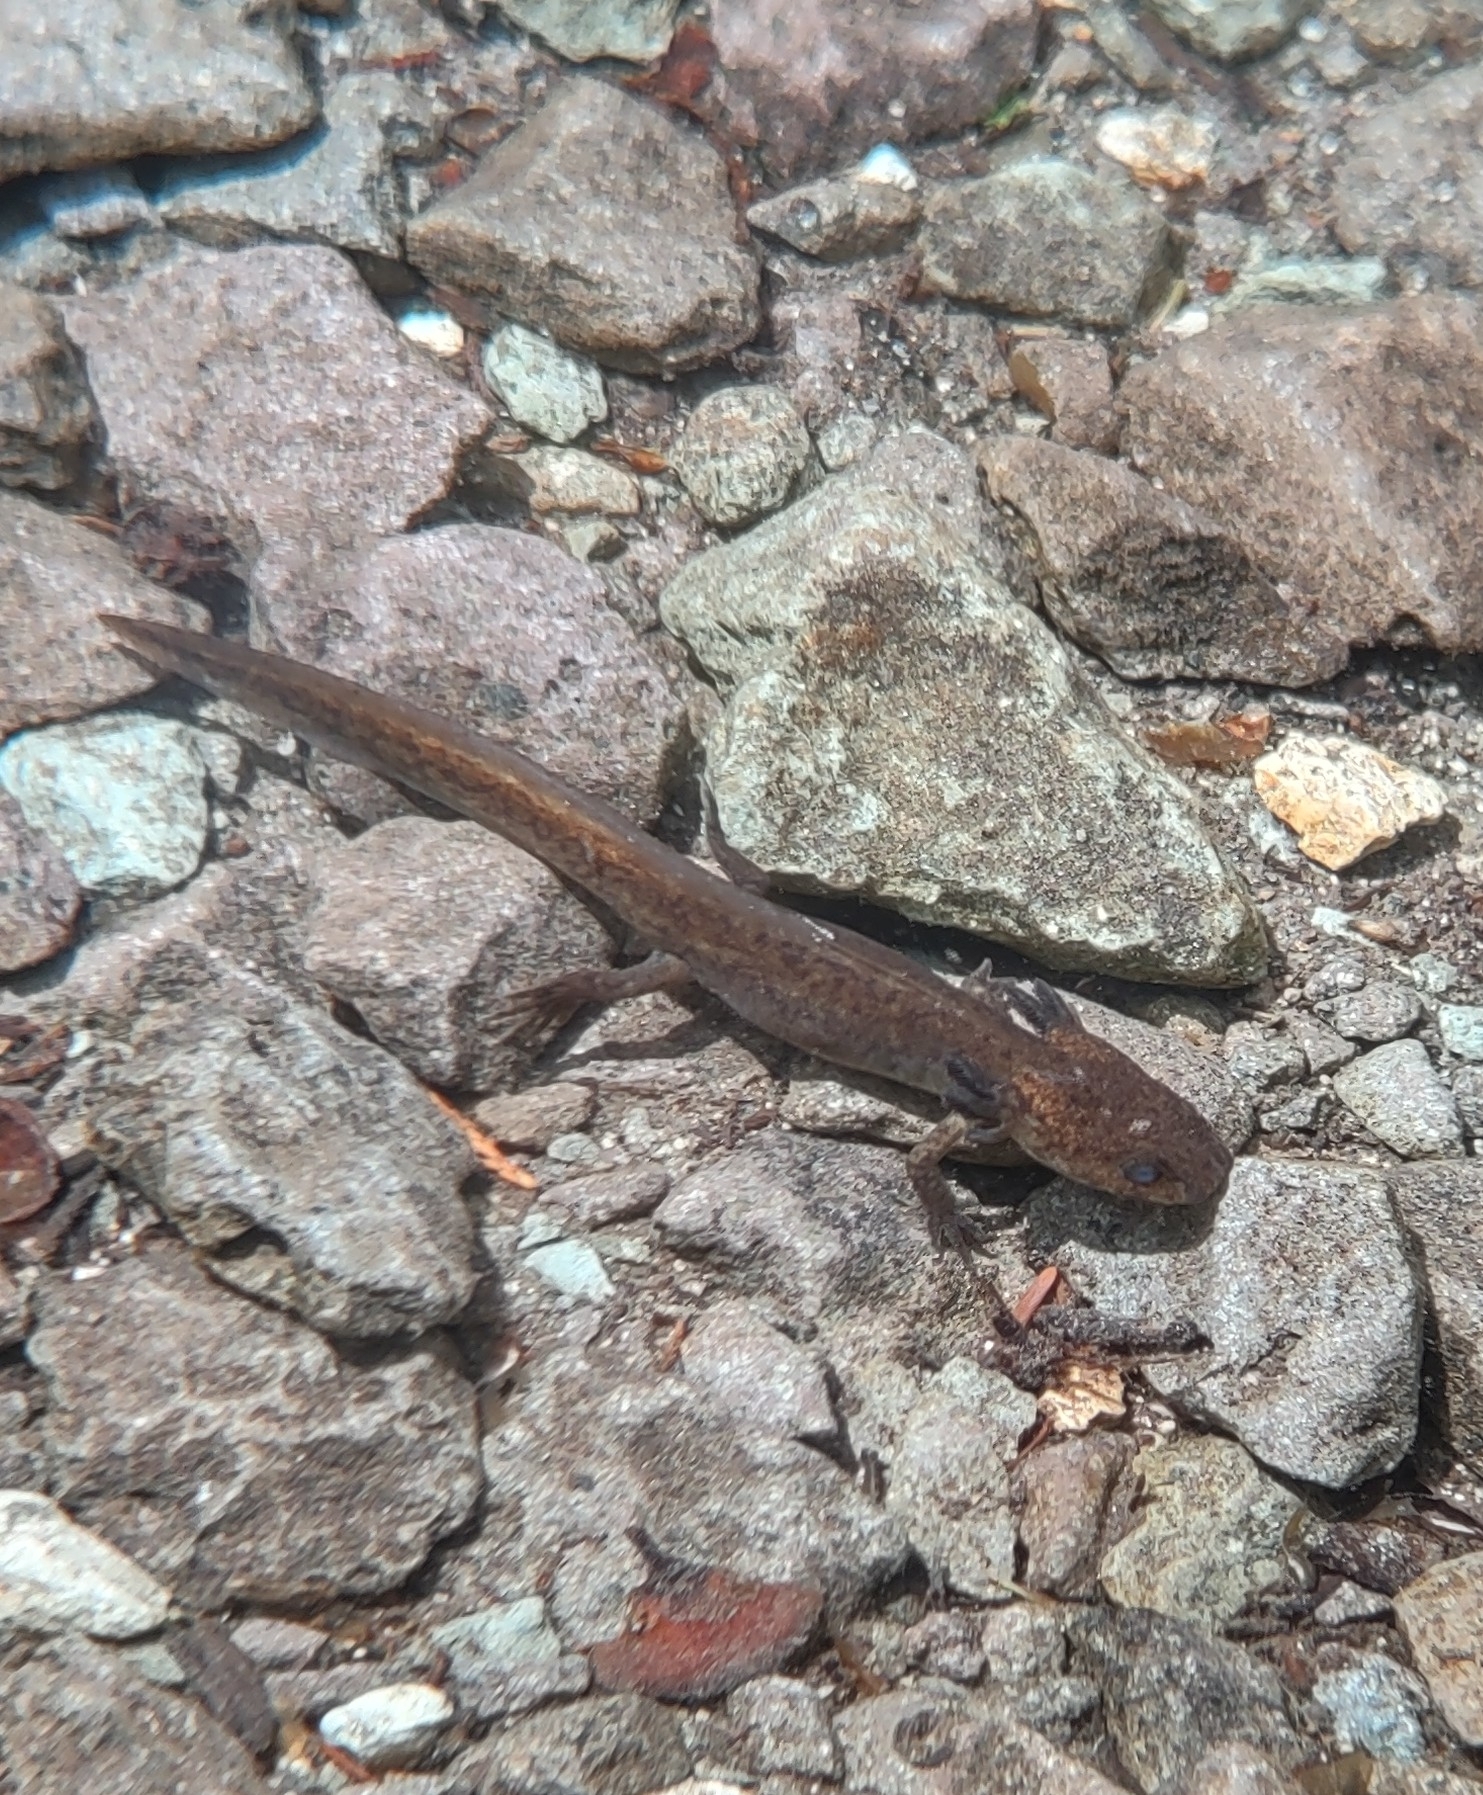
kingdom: Animalia
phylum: Chordata
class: Amphibia
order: Caudata
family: Ambystomatidae
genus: Ambystoma
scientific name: Ambystoma gracile
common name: Northwestern salamander
